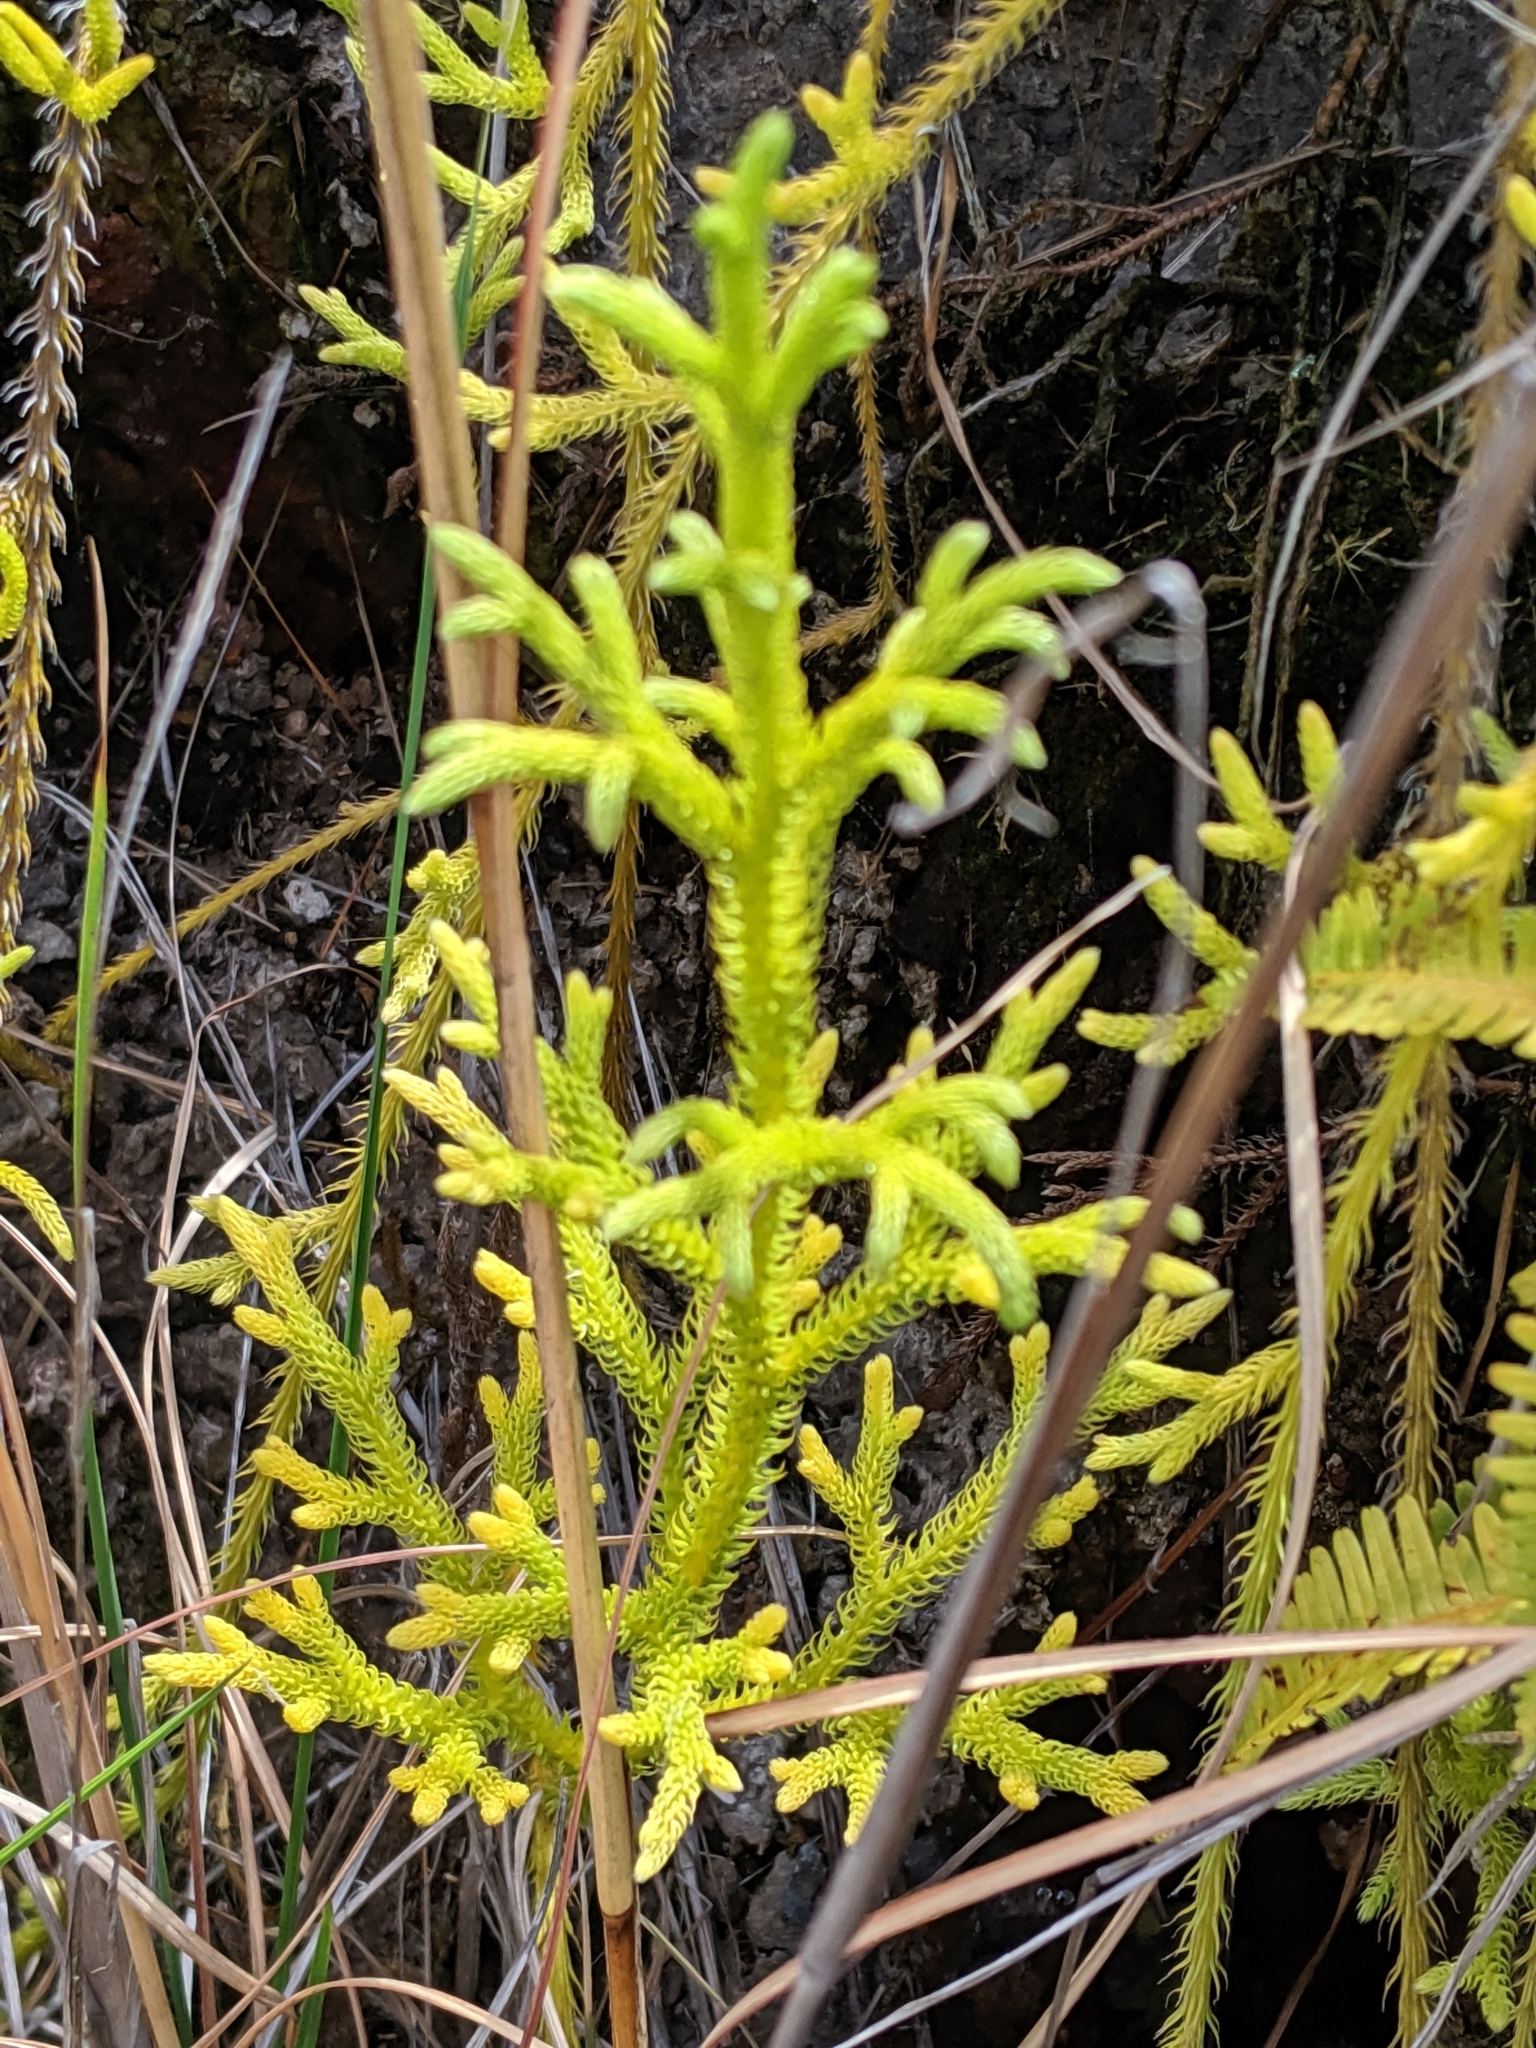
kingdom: Plantae
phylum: Tracheophyta
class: Lycopodiopsida
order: Lycopodiales
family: Lycopodiaceae
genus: Palhinhaea
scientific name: Palhinhaea cernua
